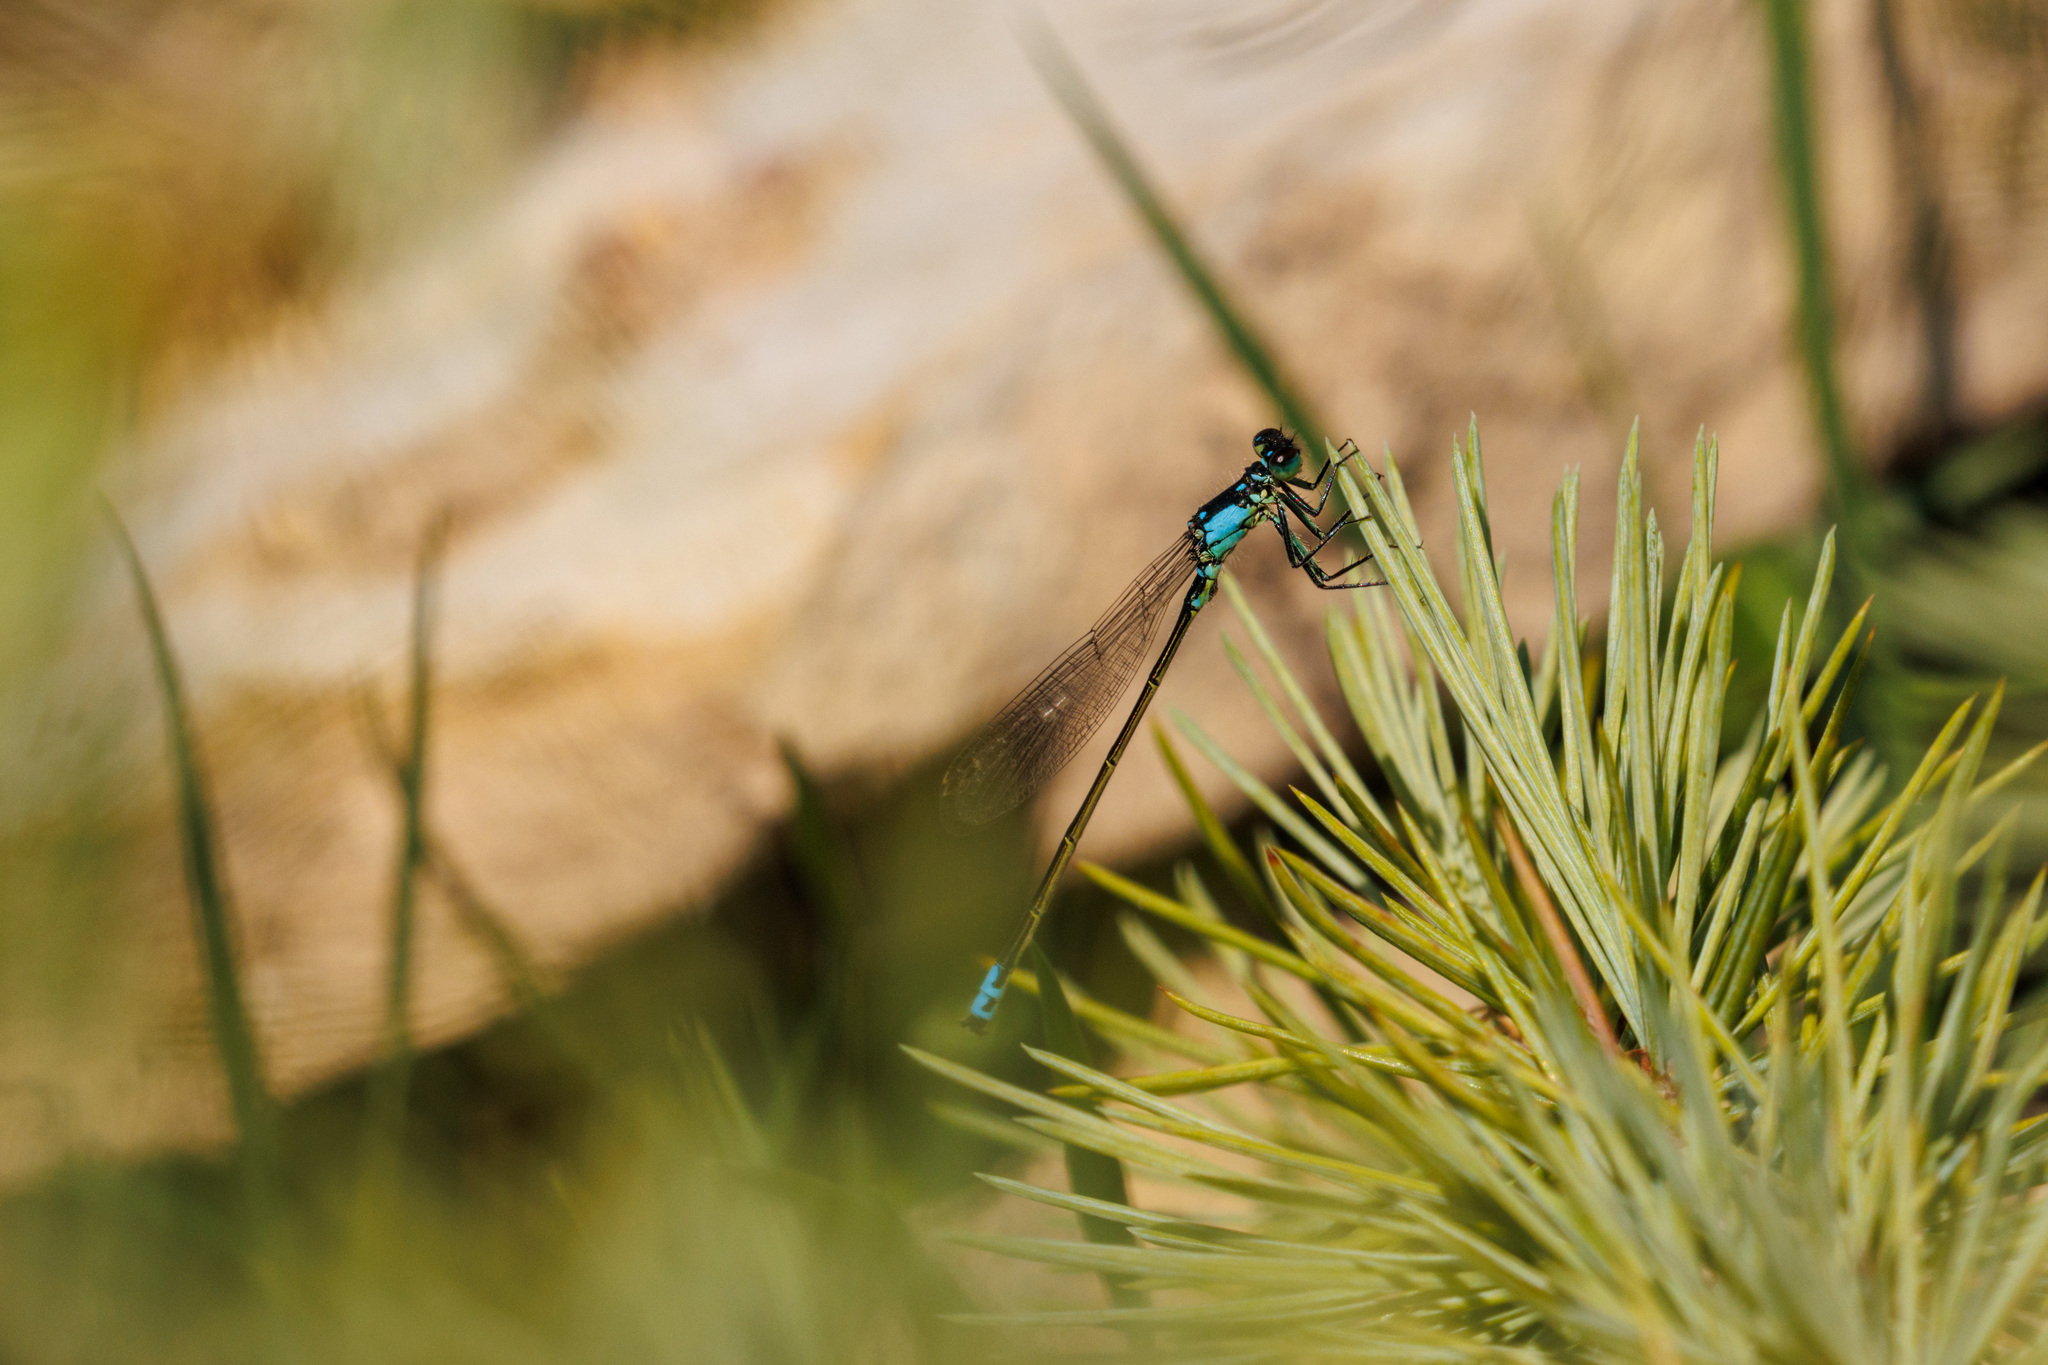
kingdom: Animalia
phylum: Arthropoda
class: Insecta
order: Odonata
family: Coenagrionidae
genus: Ischnura
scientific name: Ischnura cervula
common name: Pacific forktail
